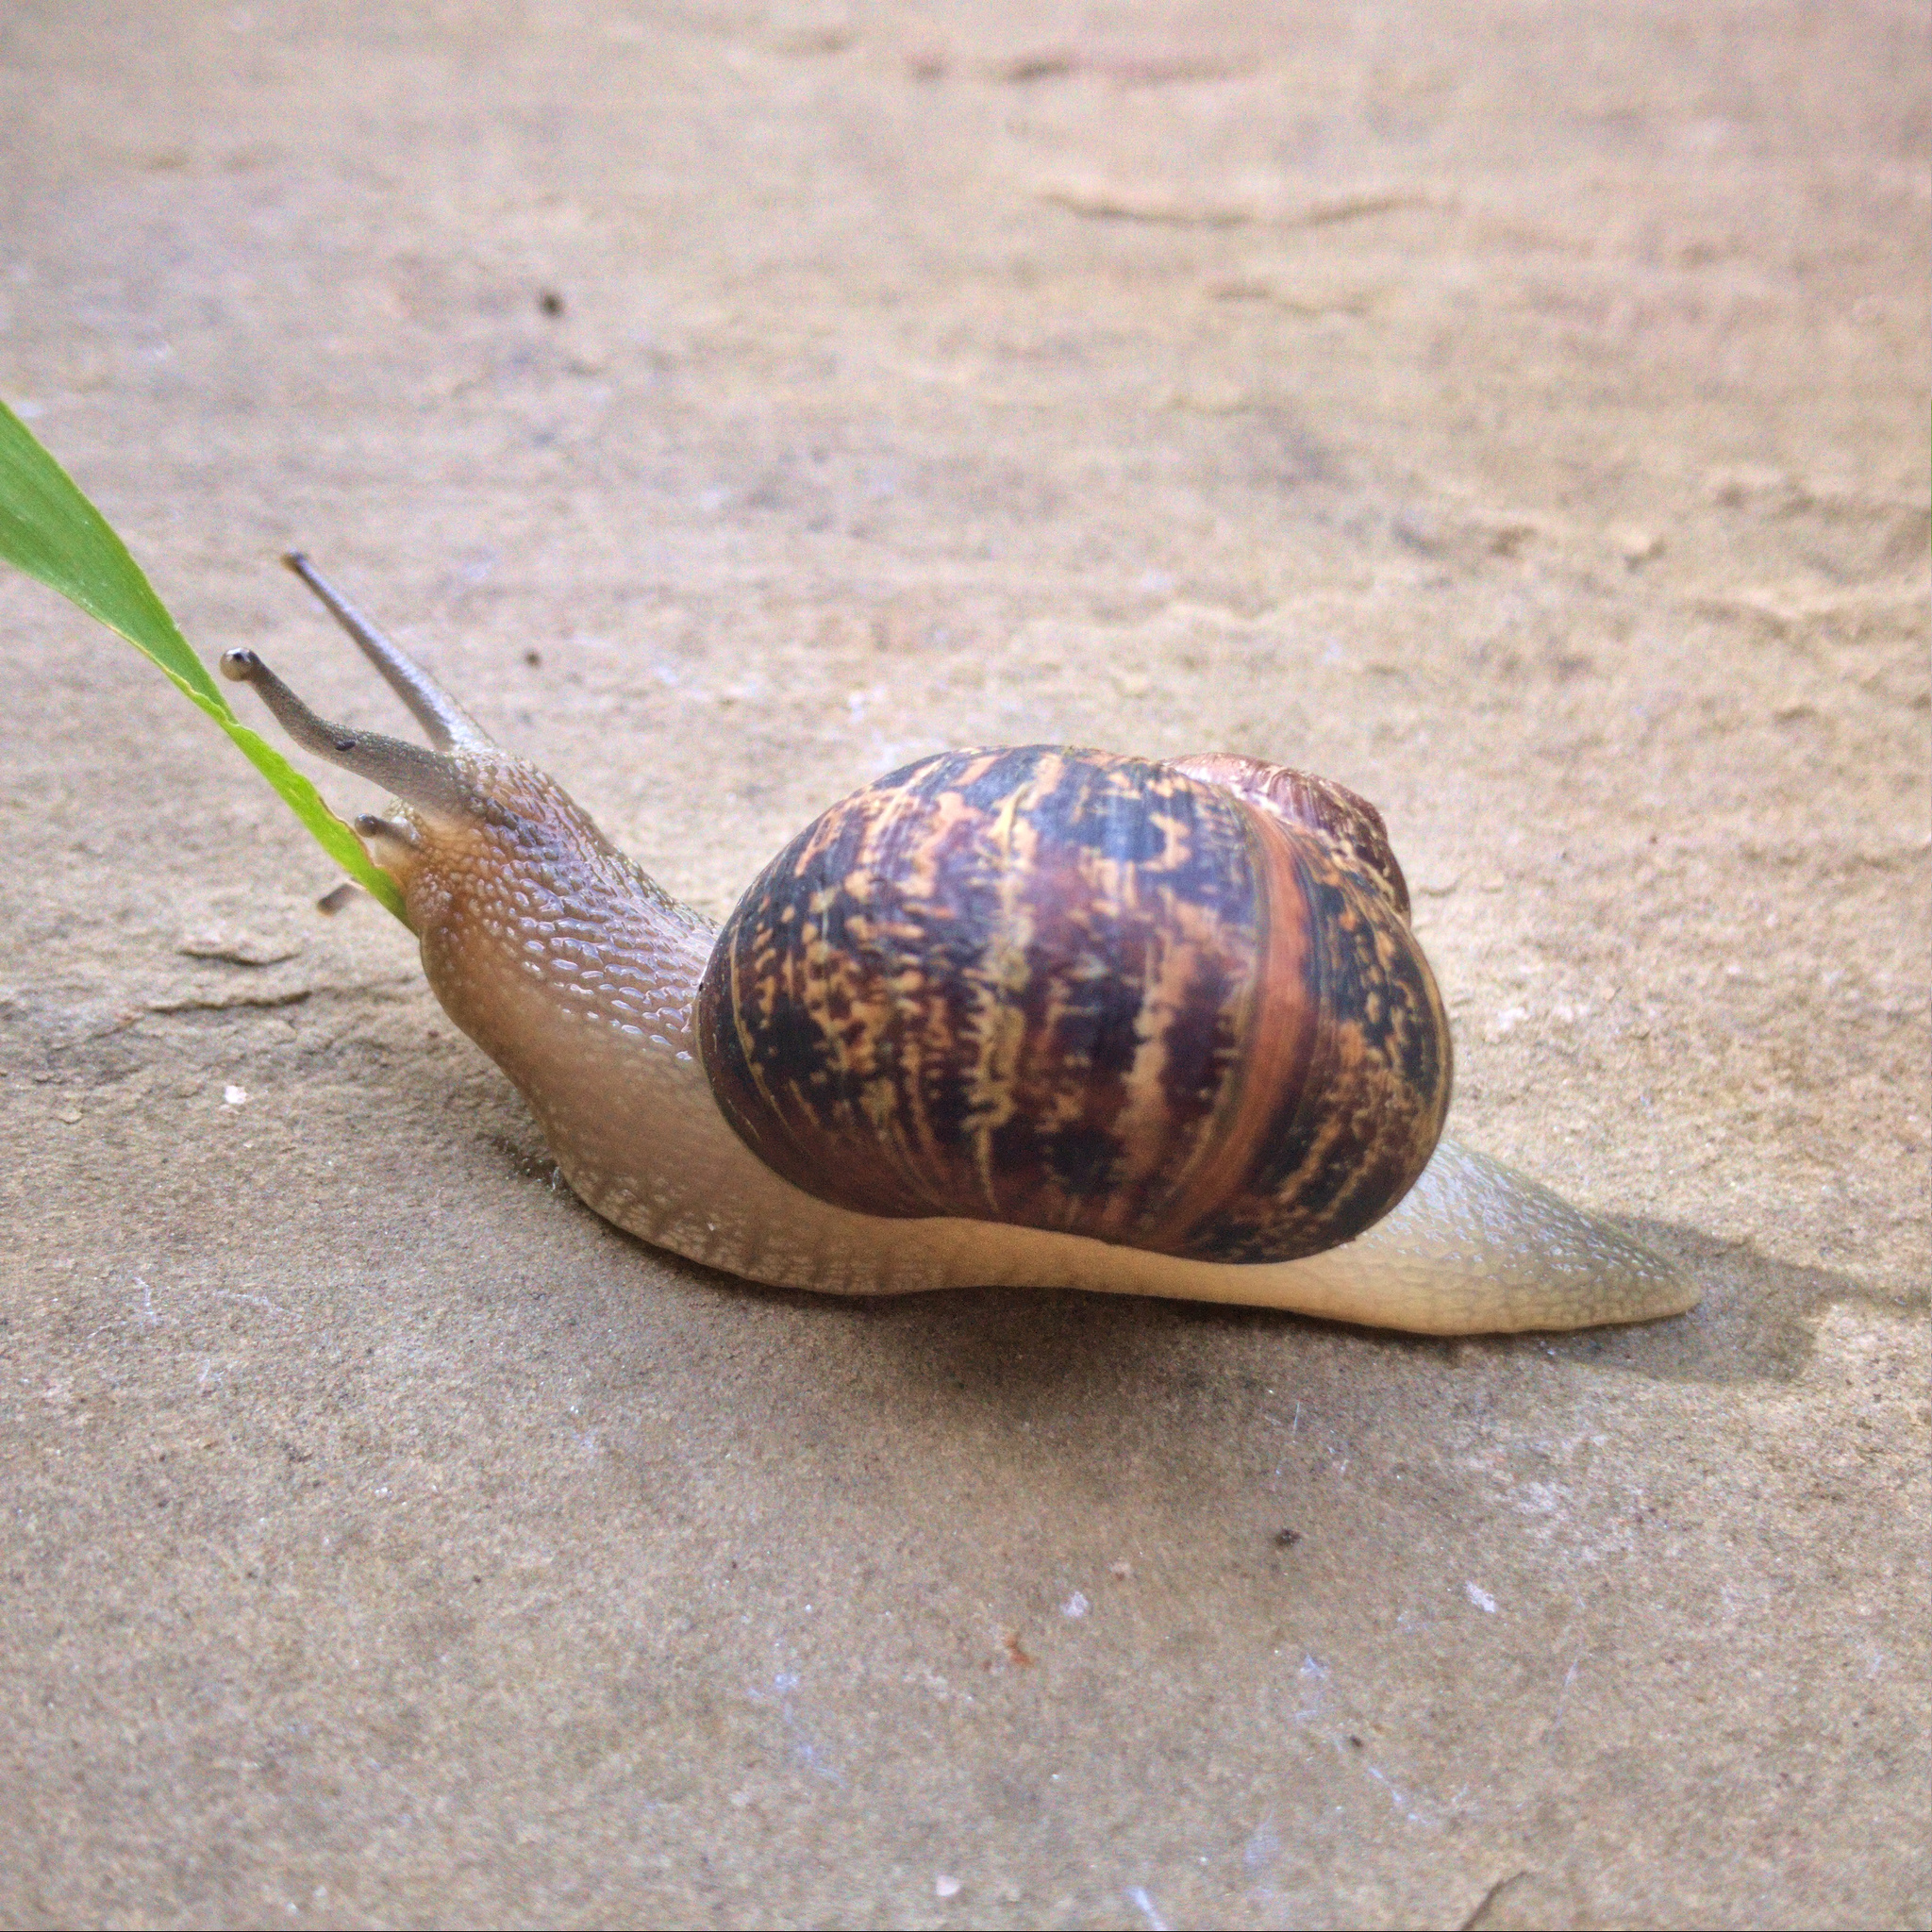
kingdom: Animalia
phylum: Mollusca
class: Gastropoda
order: Stylommatophora
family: Helicidae
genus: Cornu
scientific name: Cornu aspersum
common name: Brown garden snail
